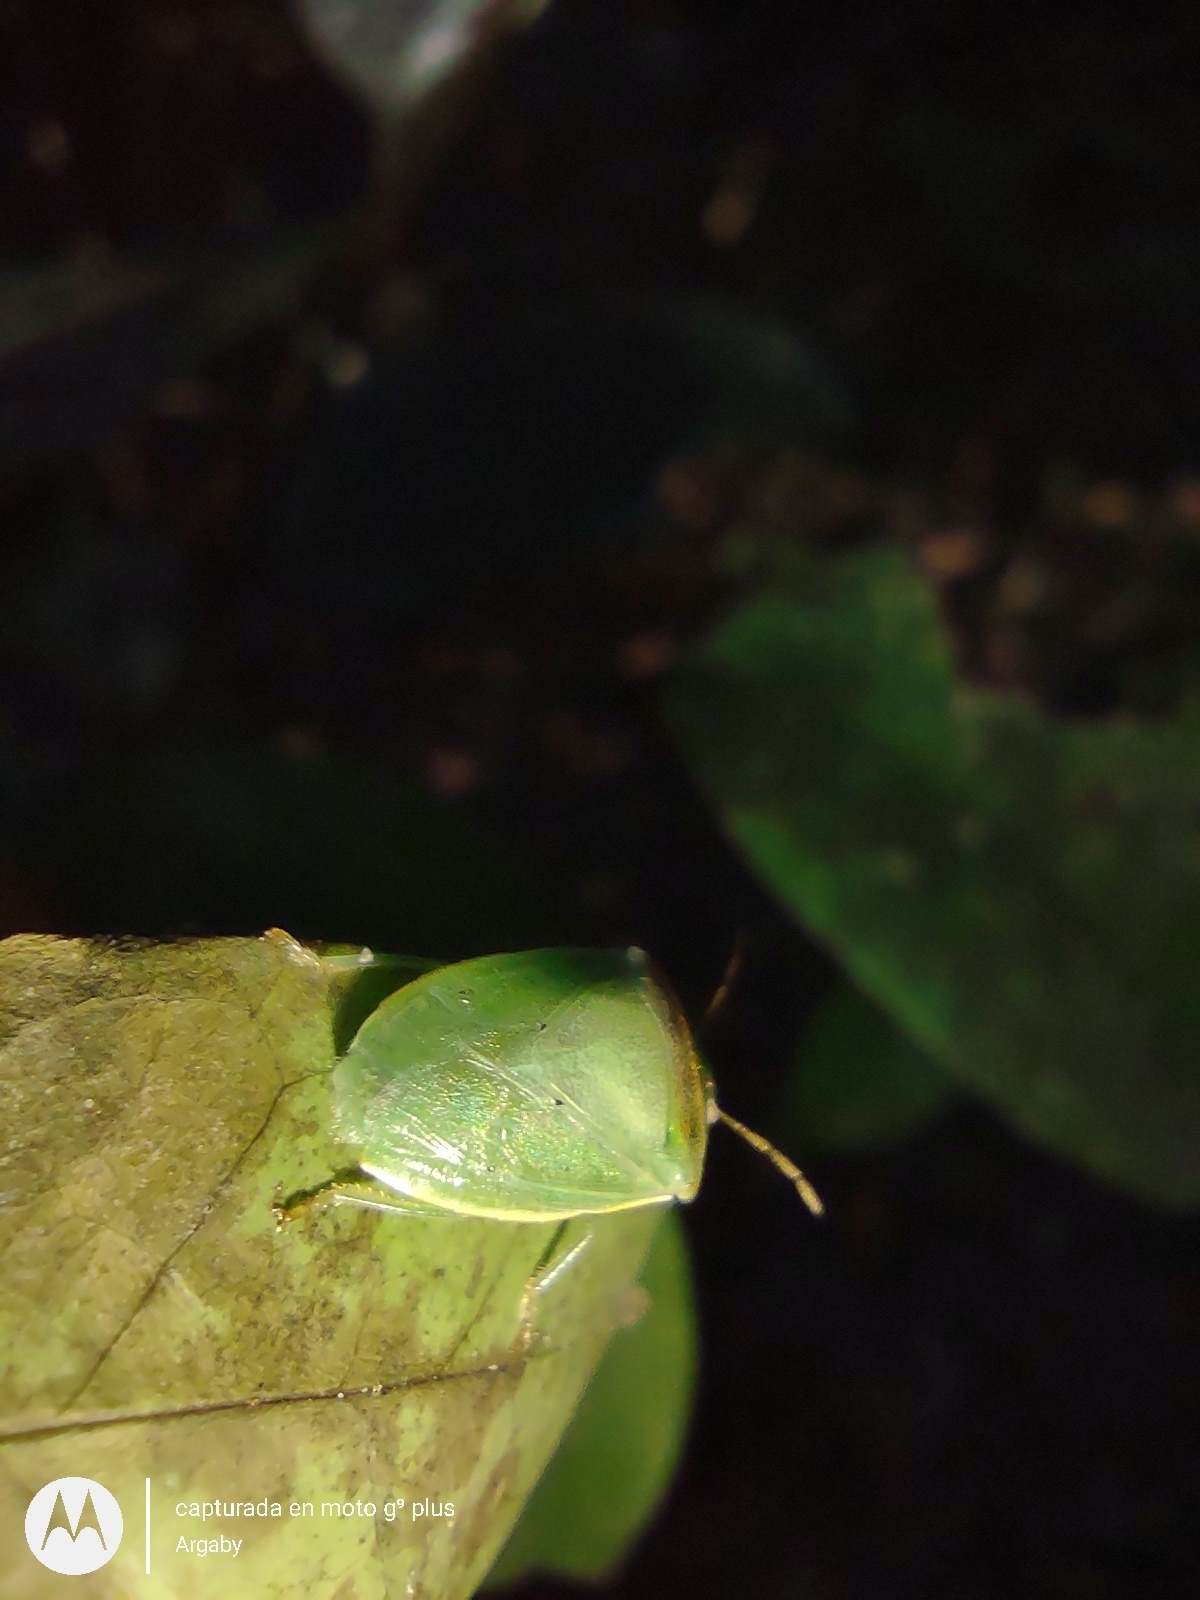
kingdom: Animalia
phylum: Arthropoda
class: Insecta
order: Hemiptera
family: Pentatomidae
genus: Piezodorus
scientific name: Piezodorus guildinii
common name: Redbanded stink bug
